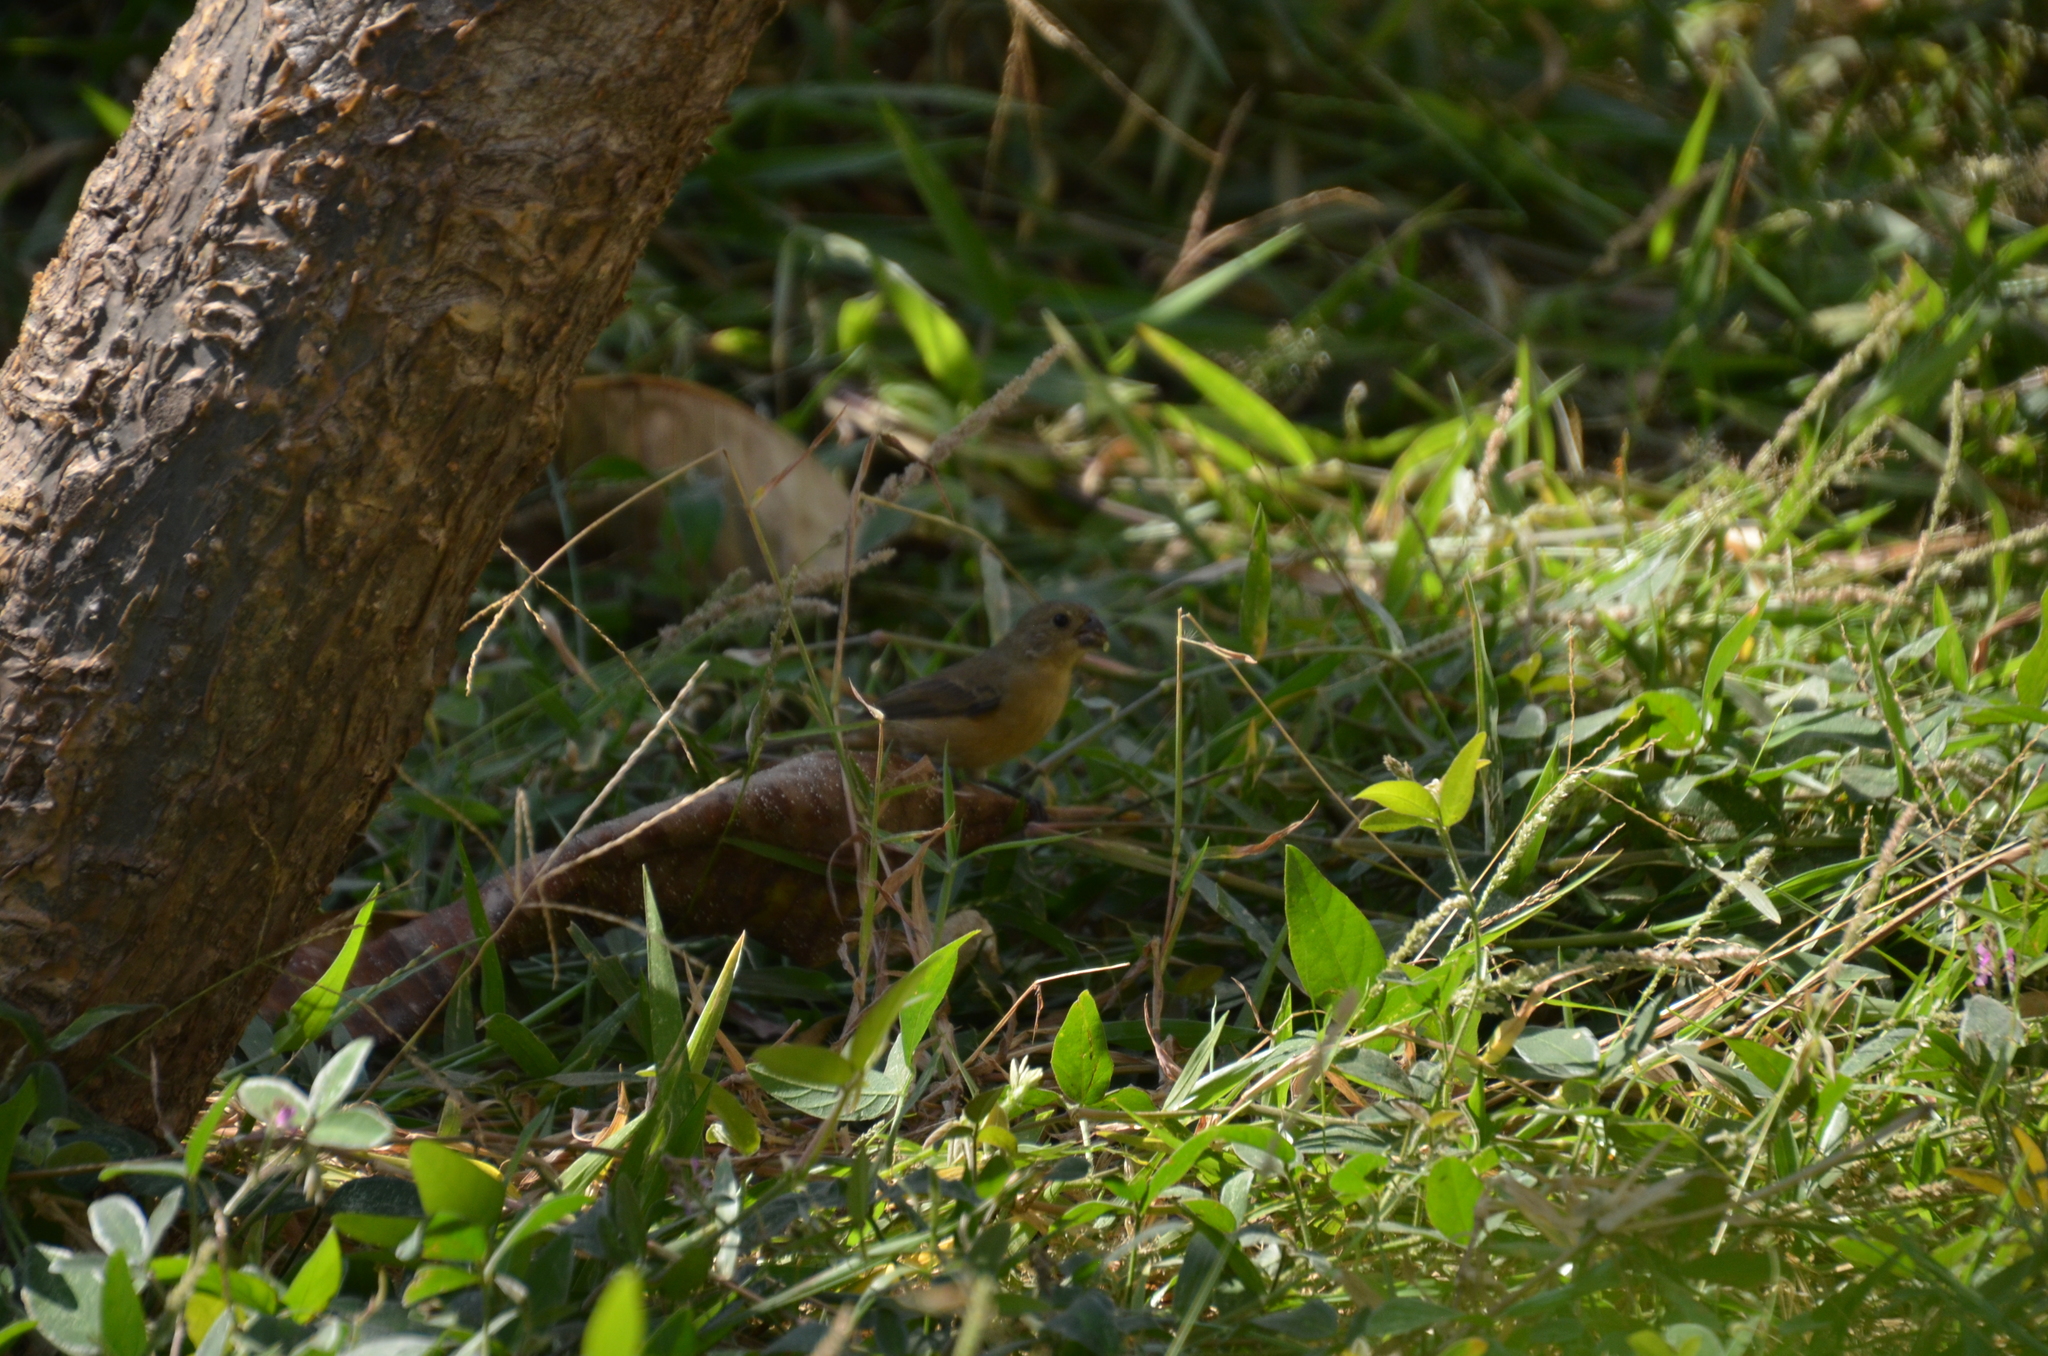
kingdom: Animalia
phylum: Chordata
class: Aves
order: Passeriformes
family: Thraupidae
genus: Sporophila
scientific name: Sporophila torqueola
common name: White-collared seedeater
